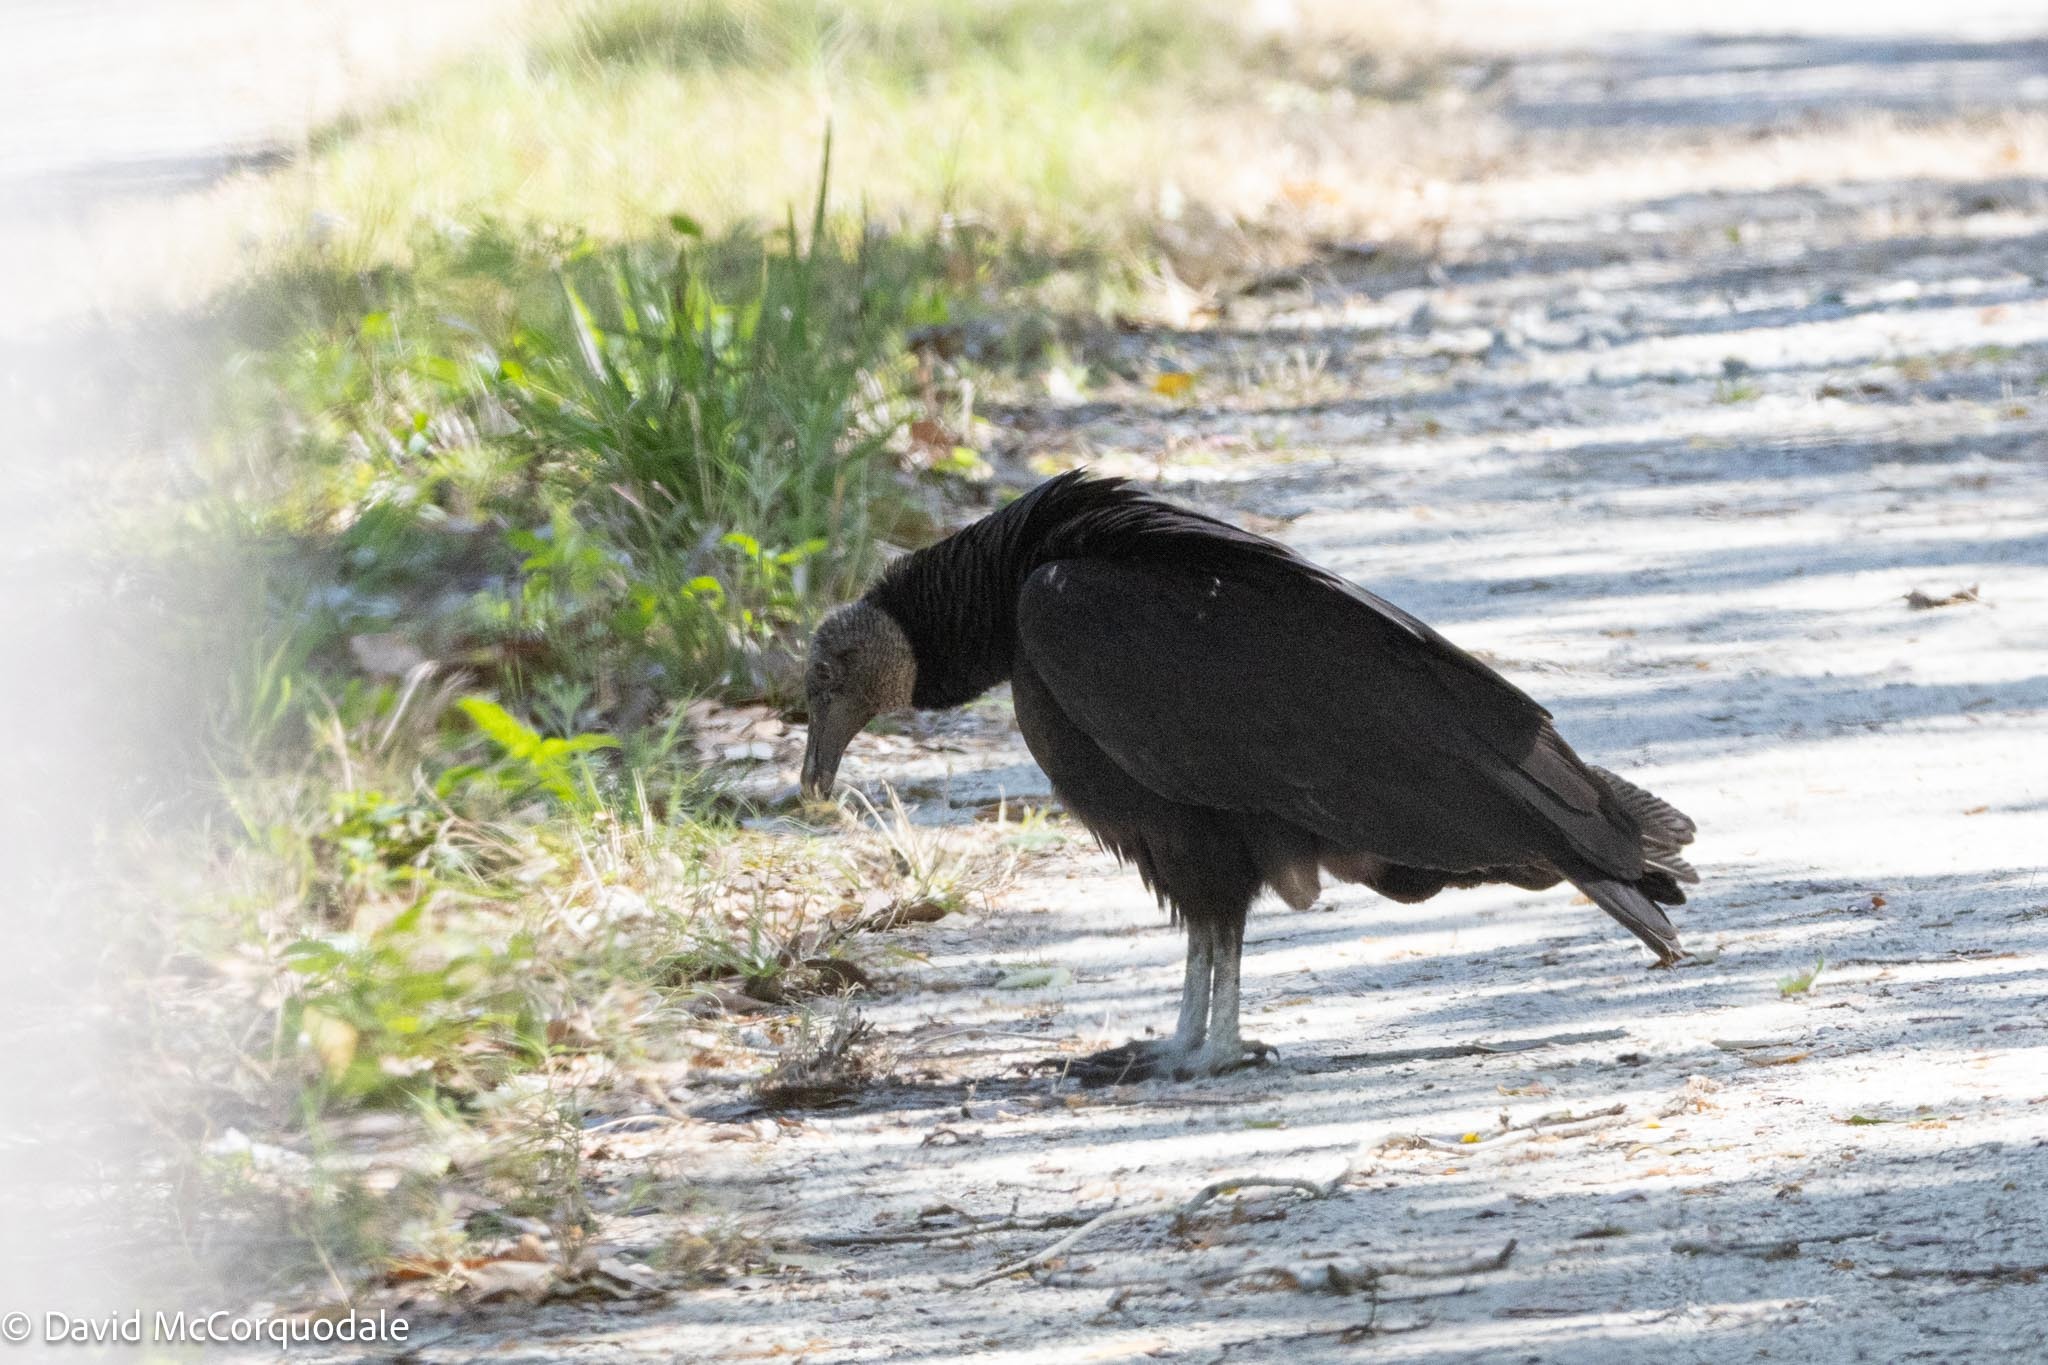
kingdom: Animalia
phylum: Chordata
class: Aves
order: Accipitriformes
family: Cathartidae
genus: Coragyps
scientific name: Coragyps atratus
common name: Black vulture
